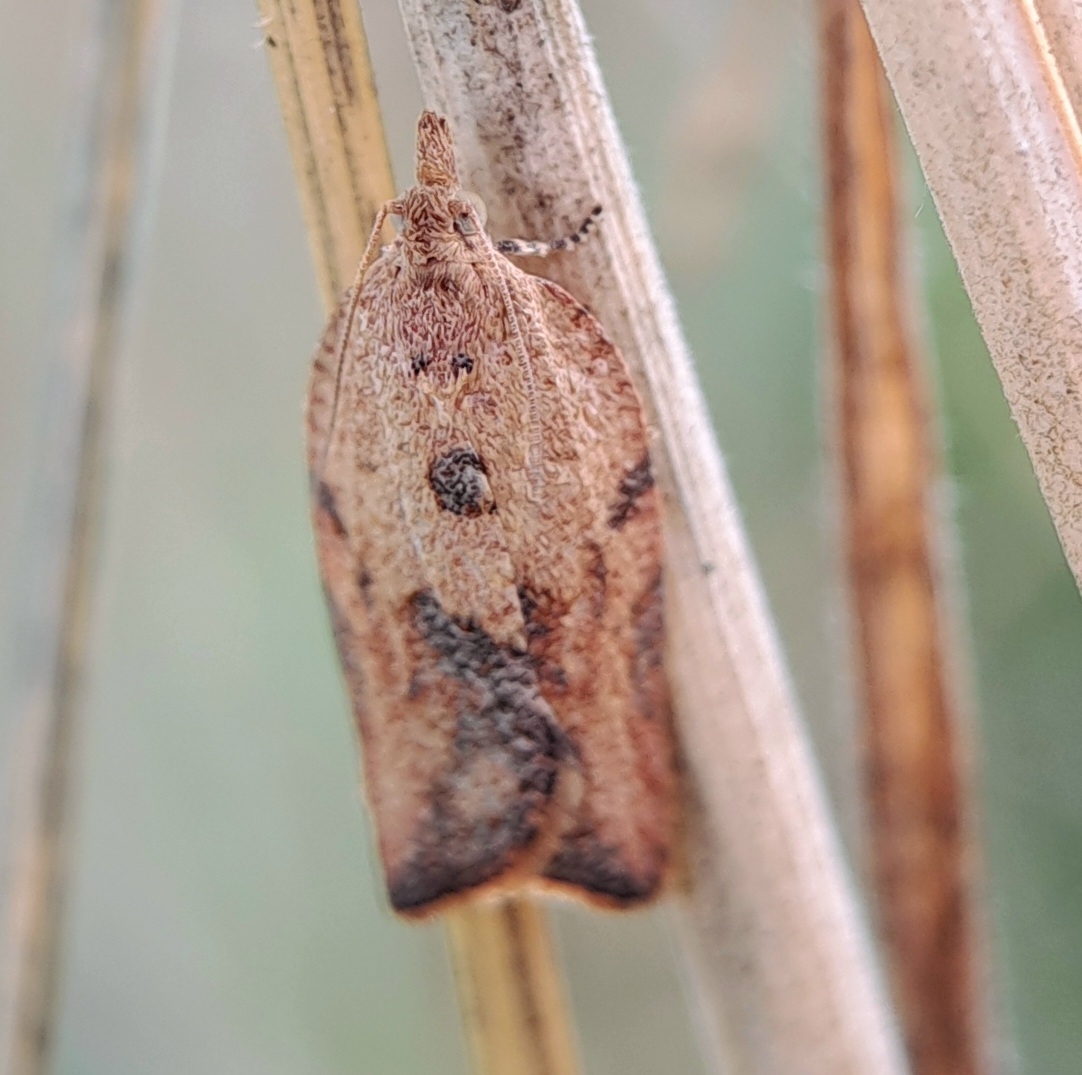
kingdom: Animalia
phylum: Arthropoda
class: Insecta
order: Lepidoptera
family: Tortricidae
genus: Epiphyas
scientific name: Epiphyas postvittana
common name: Light brown apple moth
